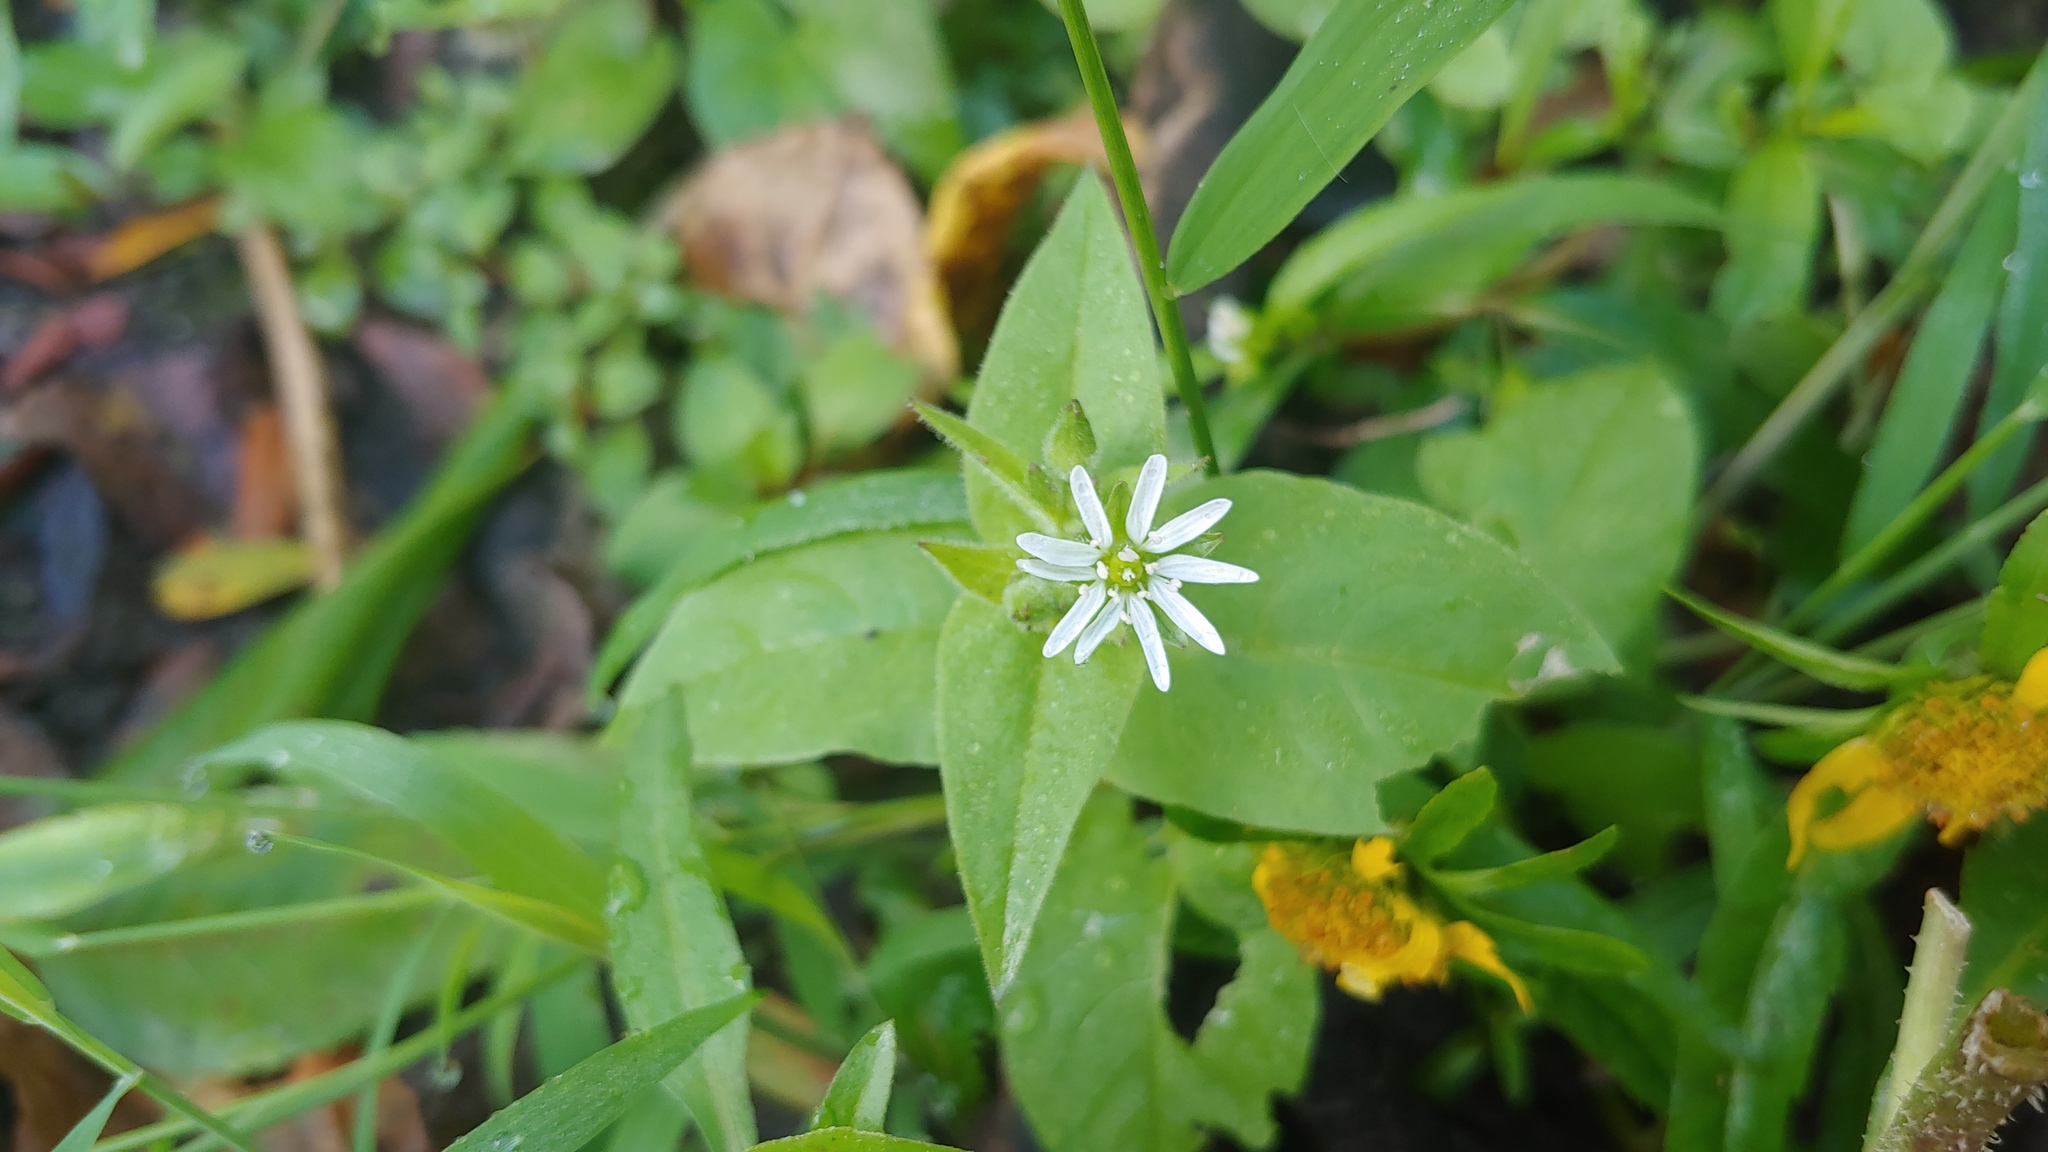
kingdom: Plantae
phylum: Tracheophyta
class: Magnoliopsida
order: Caryophyllales
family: Caryophyllaceae
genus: Stellaria
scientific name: Stellaria aquatica
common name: Water chickweed
